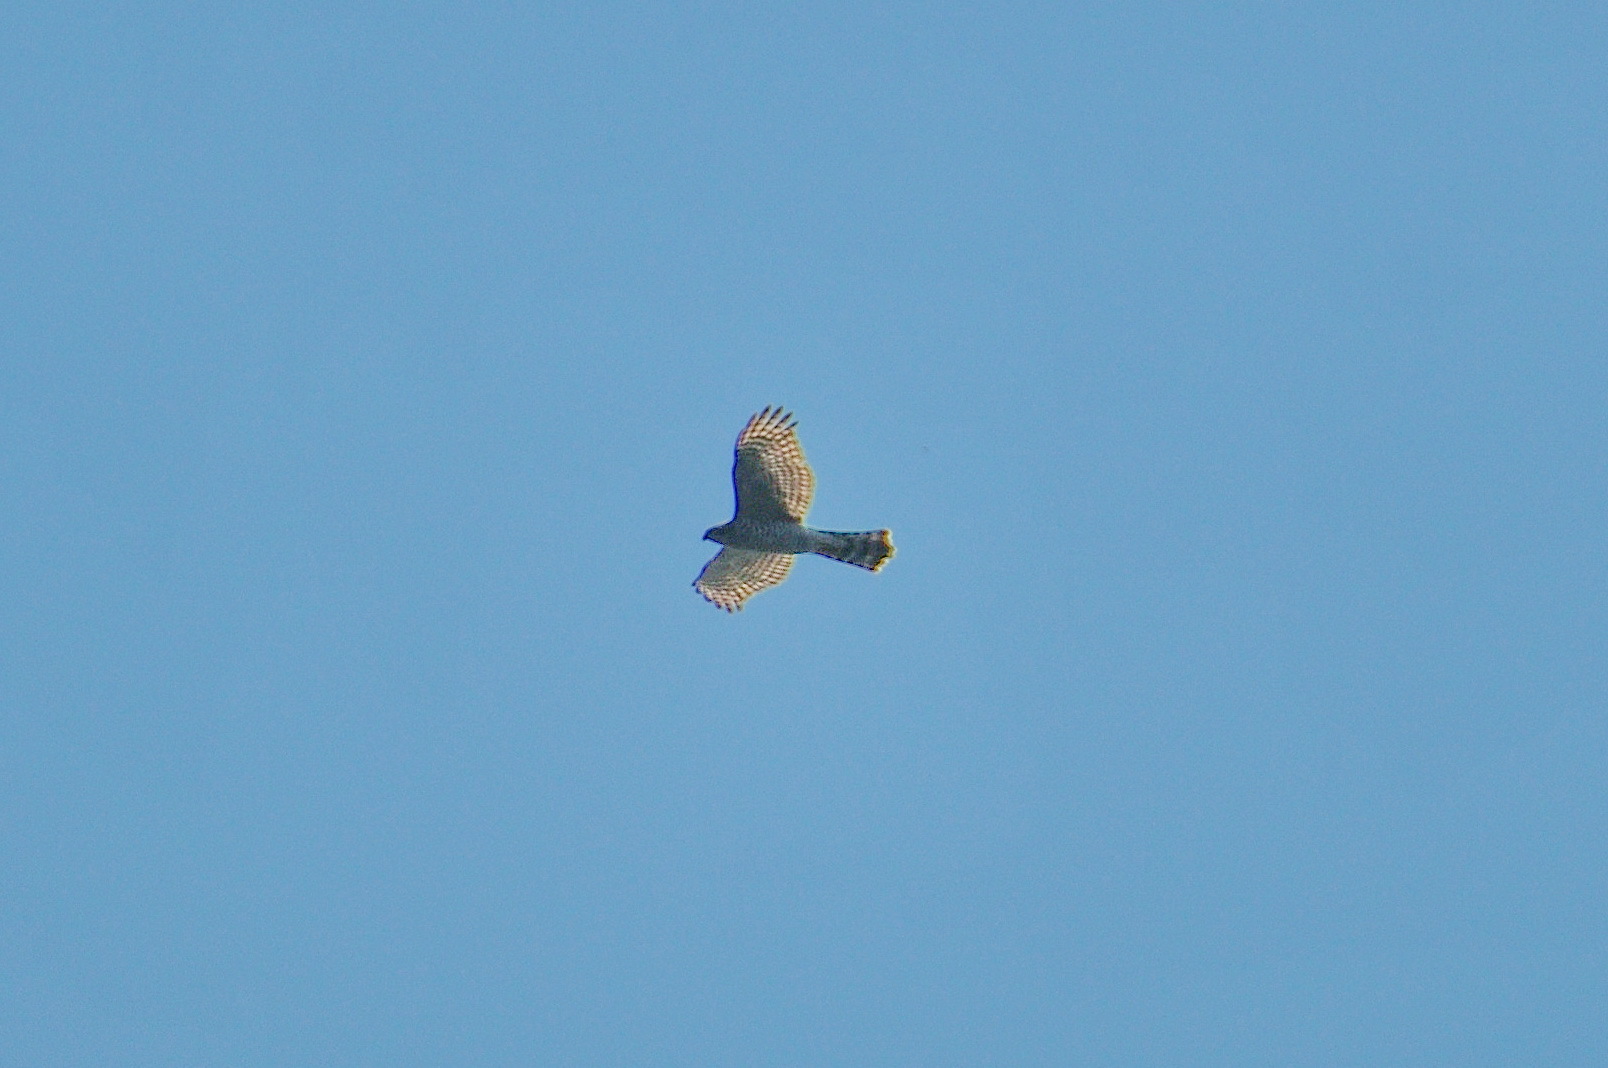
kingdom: Animalia
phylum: Chordata
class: Aves
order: Accipitriformes
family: Accipitridae
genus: Accipiter
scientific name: Accipiter nisus
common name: Eurasian sparrowhawk
